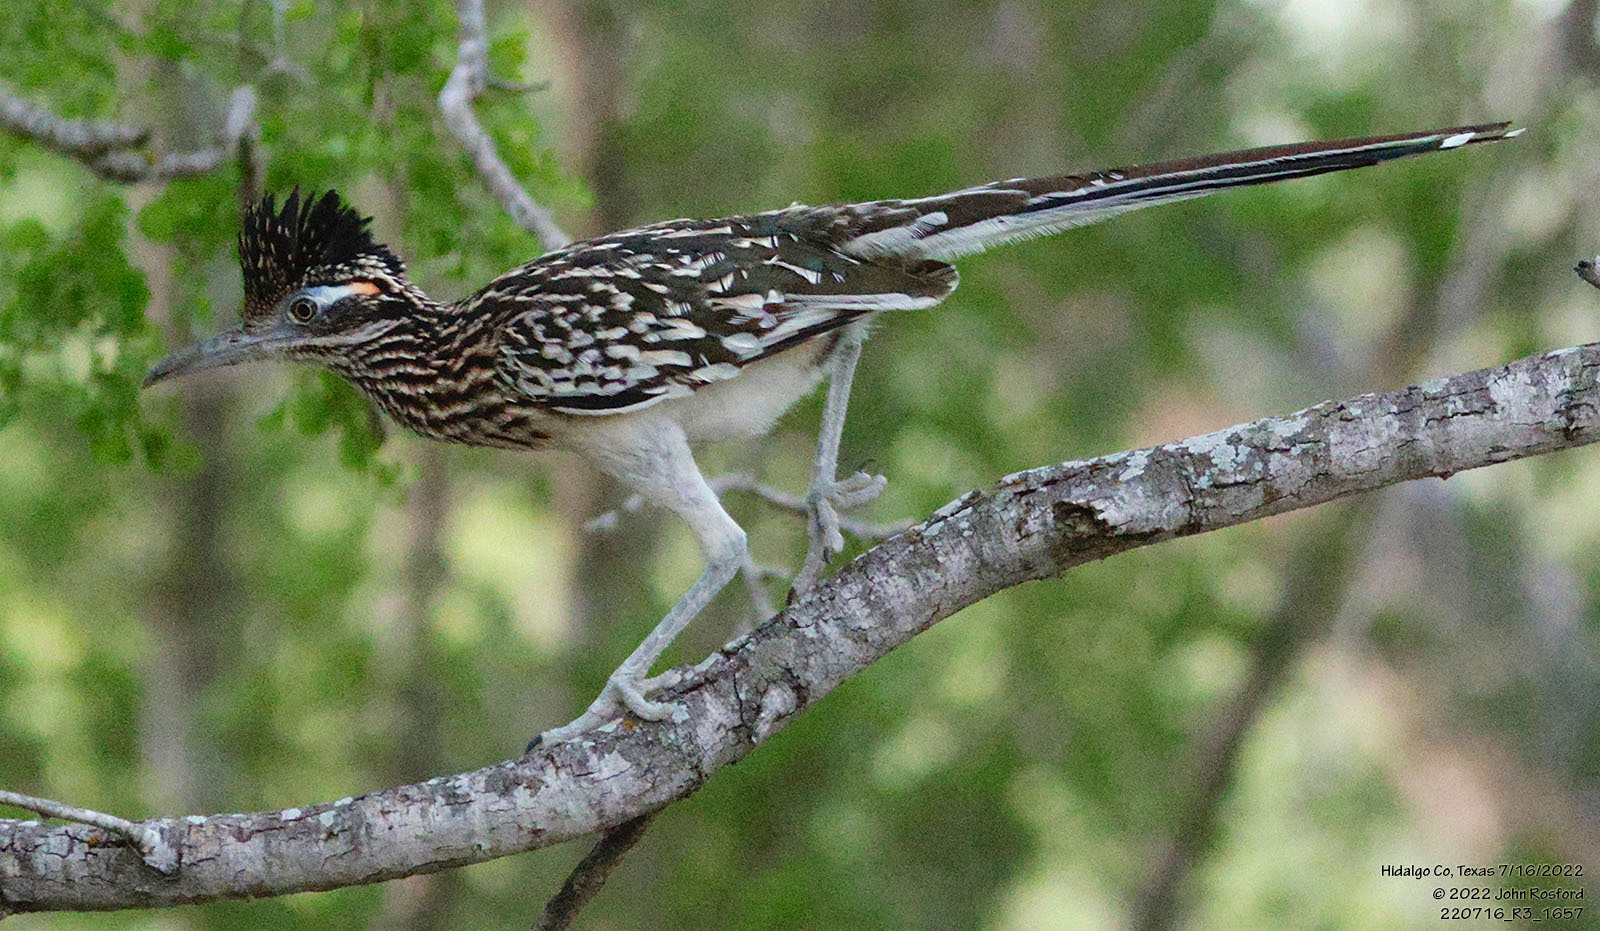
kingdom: Animalia
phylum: Chordata
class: Aves
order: Cuculiformes
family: Cuculidae
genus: Geococcyx
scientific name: Geococcyx californianus
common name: Greater roadrunner
